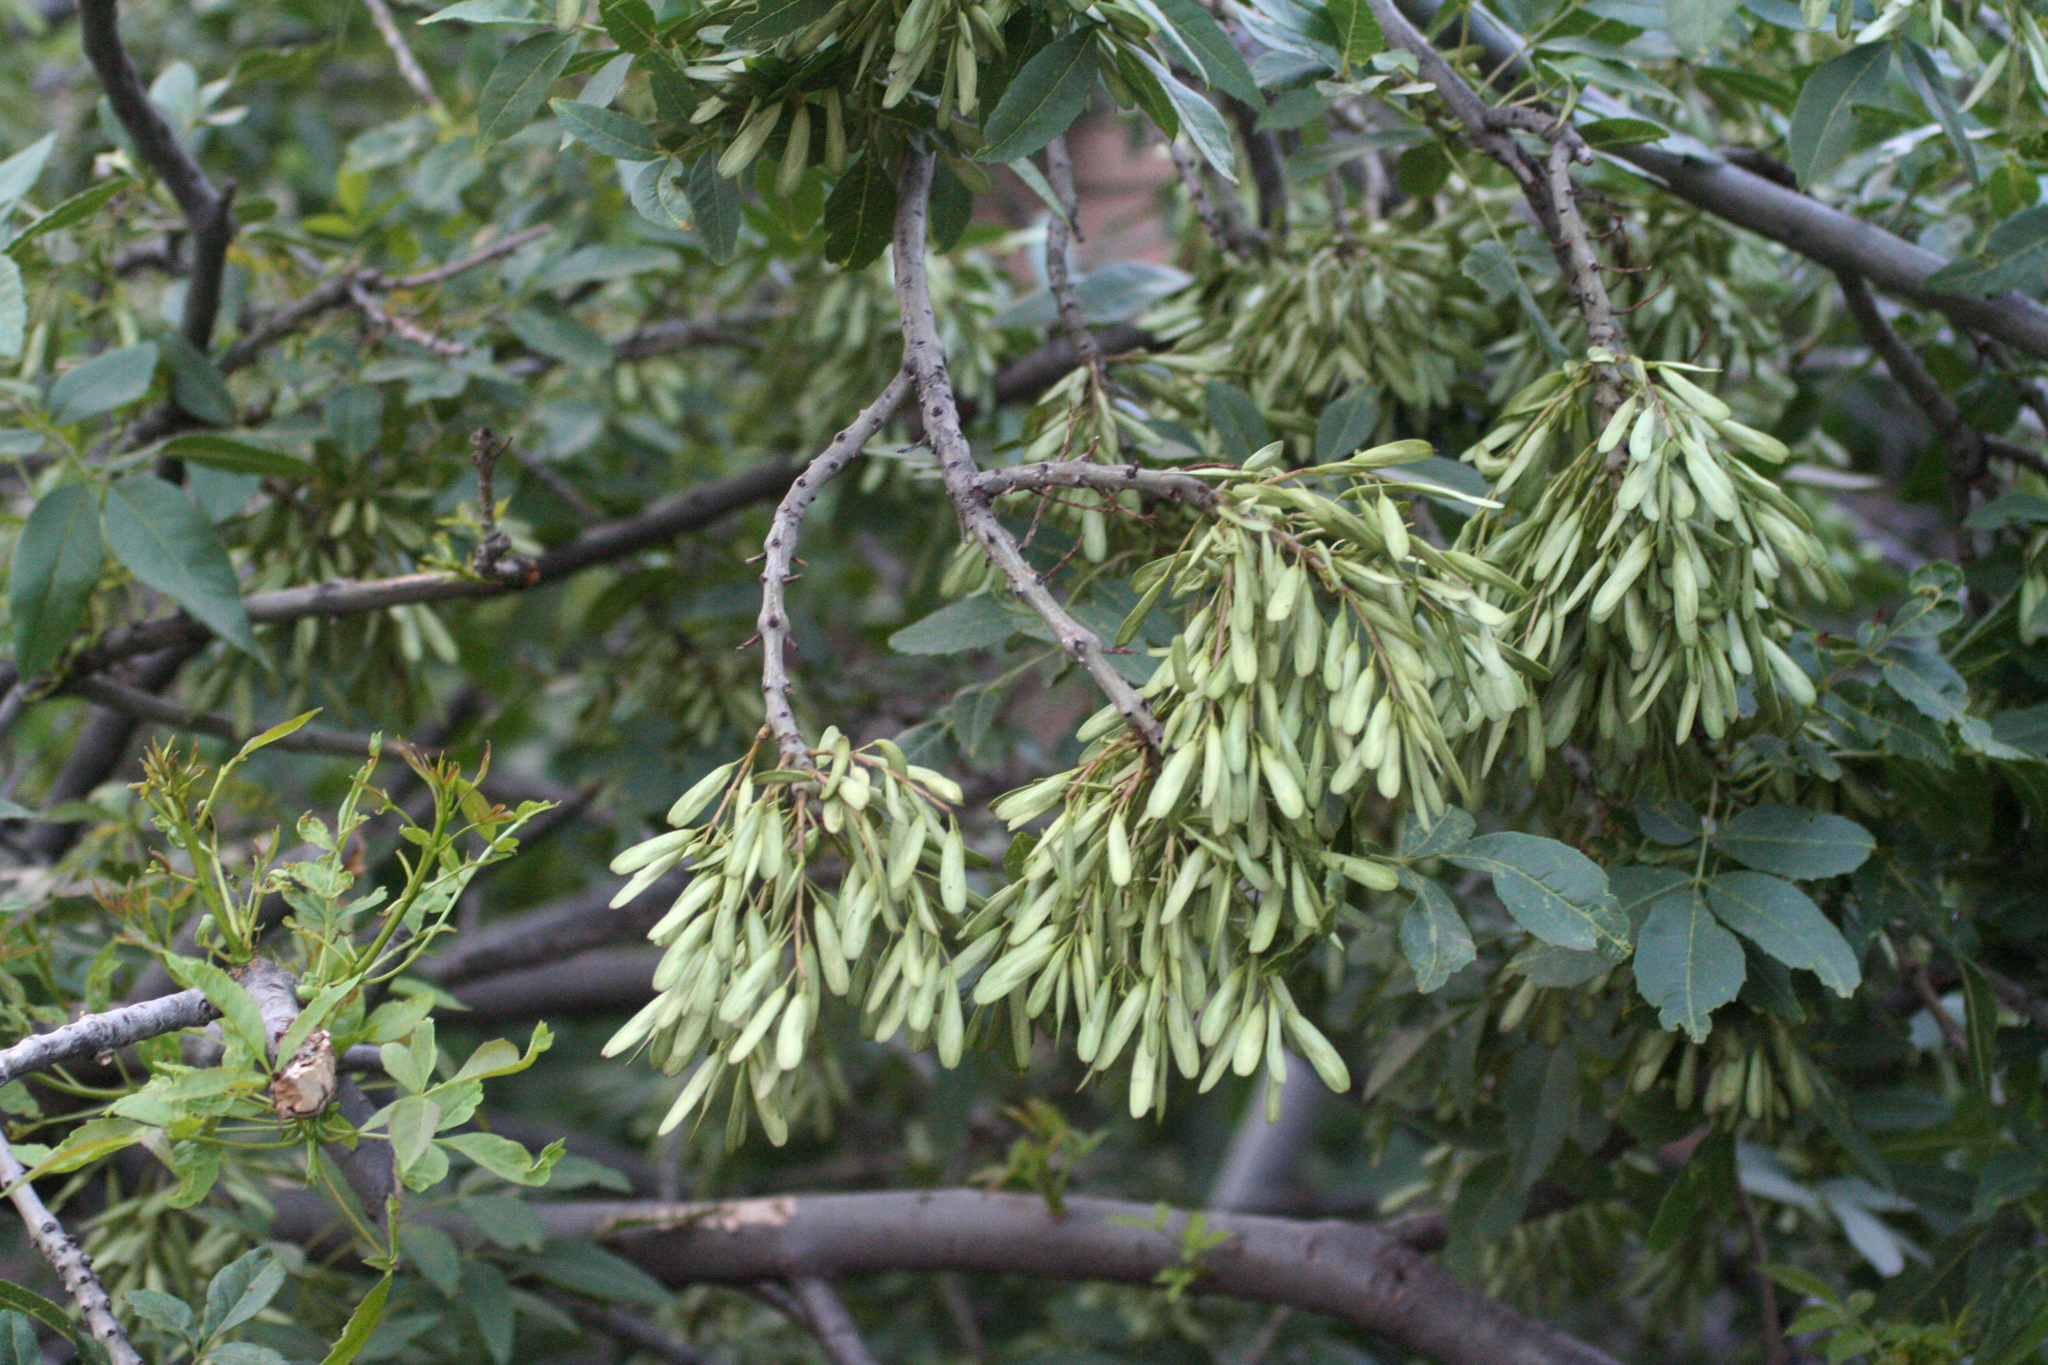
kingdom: Plantae
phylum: Tracheophyta
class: Magnoliopsida
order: Lamiales
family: Oleaceae
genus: Fraxinus
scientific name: Fraxinus angustifolia
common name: Narrow-leafed ash
